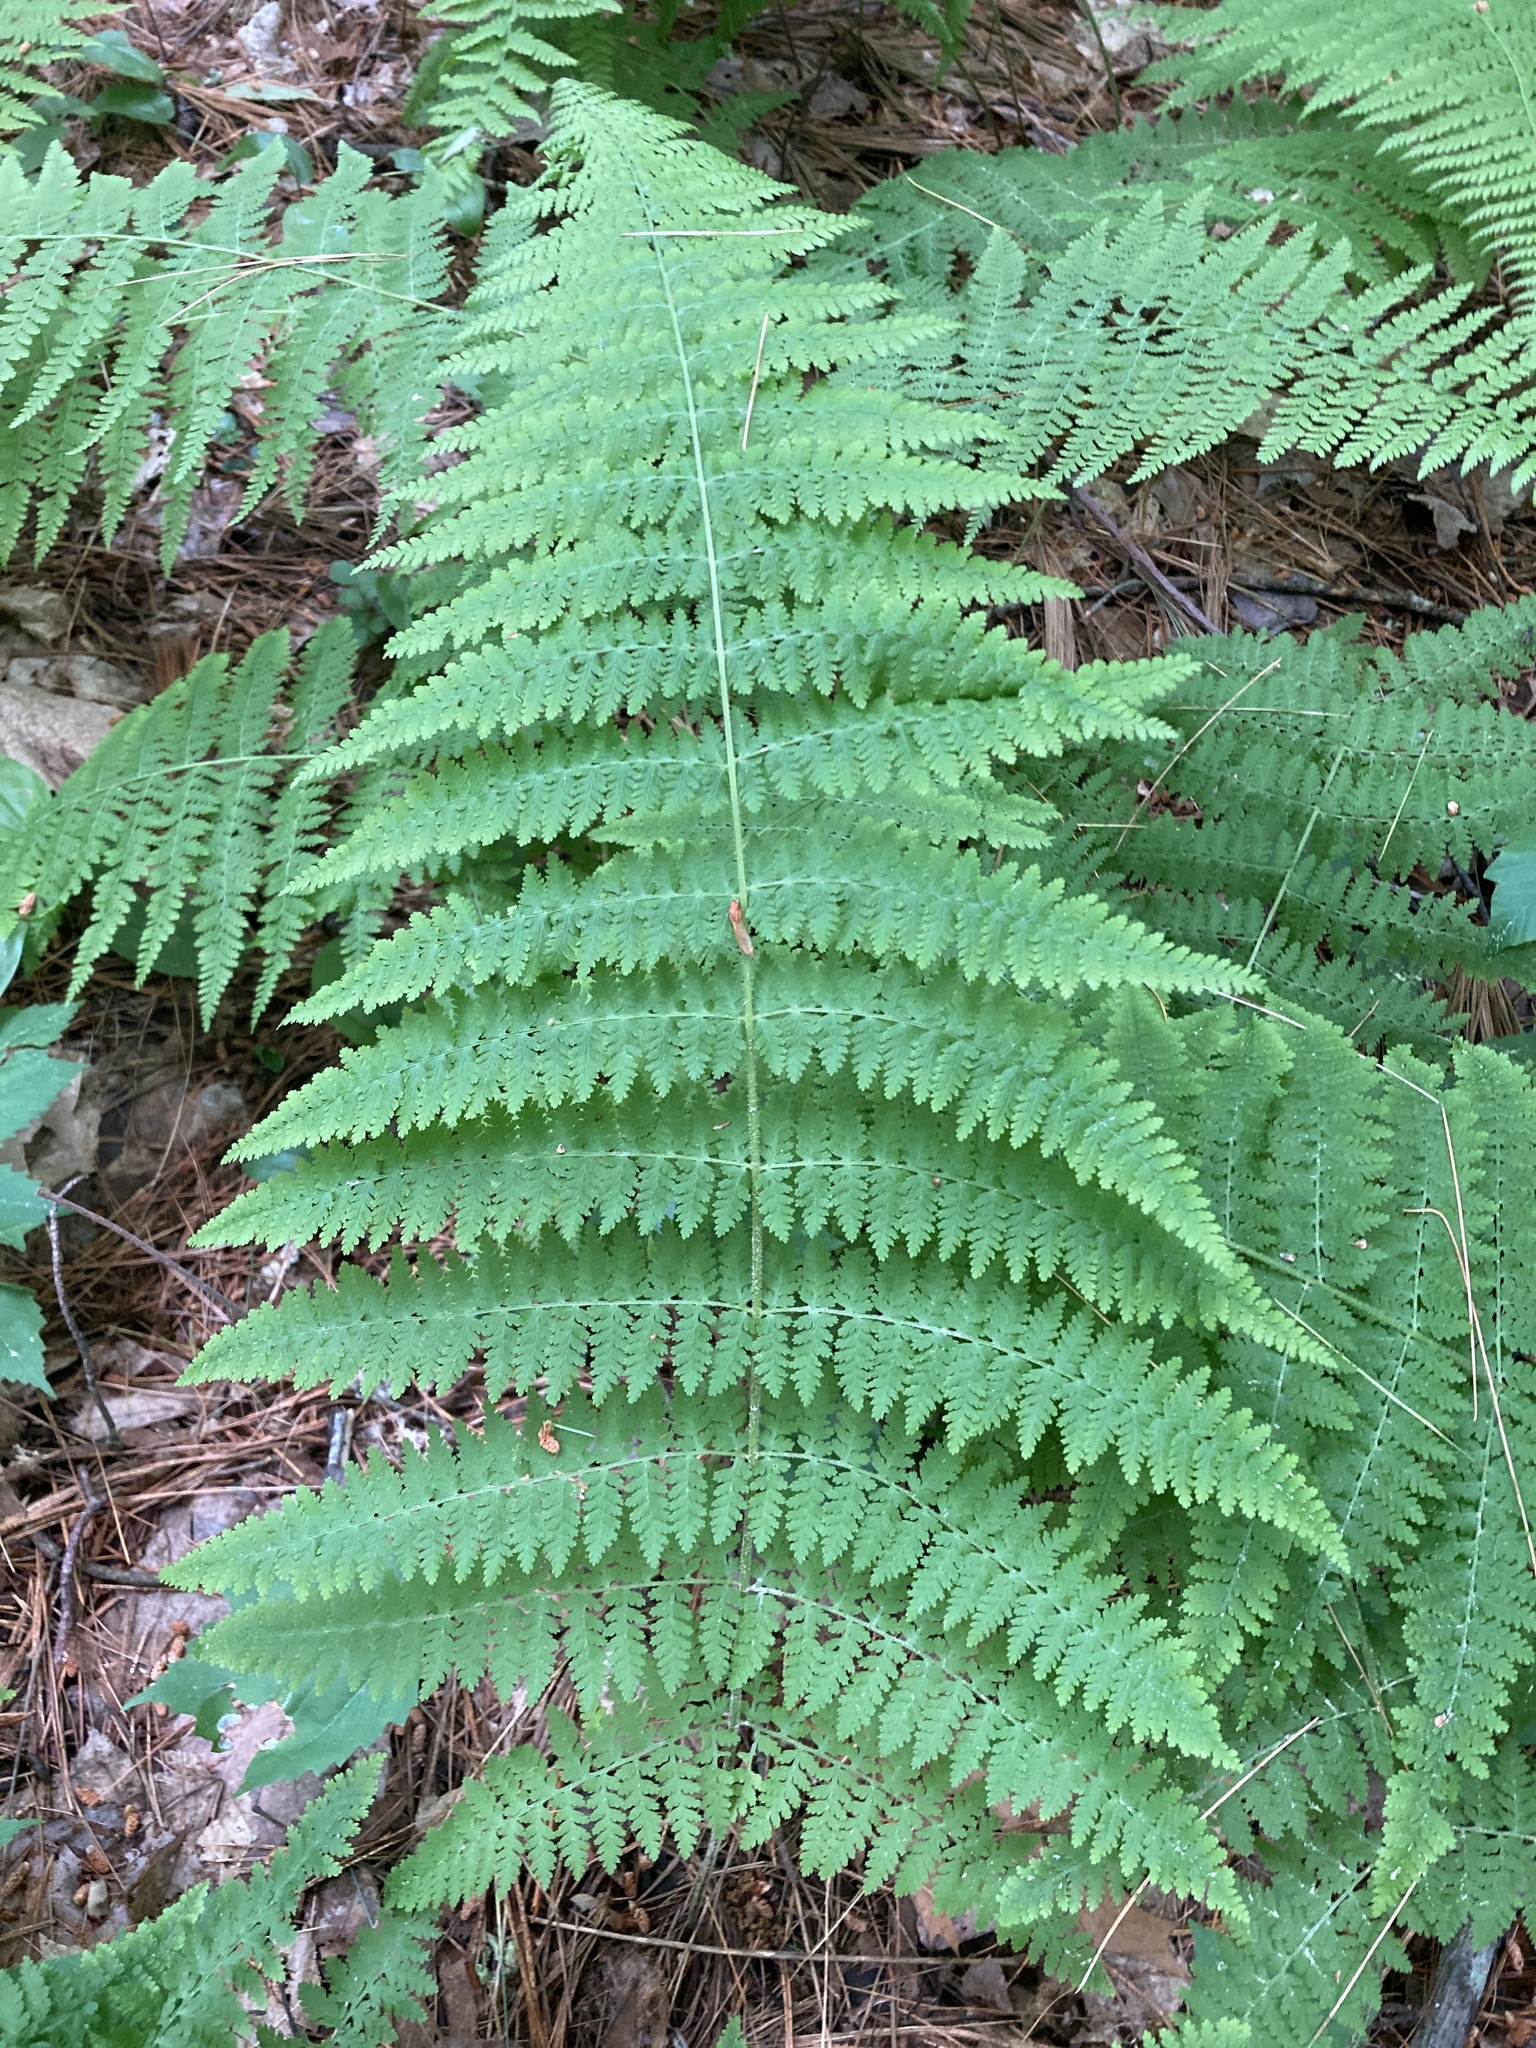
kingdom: Plantae
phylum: Tracheophyta
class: Polypodiopsida
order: Polypodiales
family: Dennstaedtiaceae
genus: Sitobolium
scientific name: Sitobolium punctilobum
